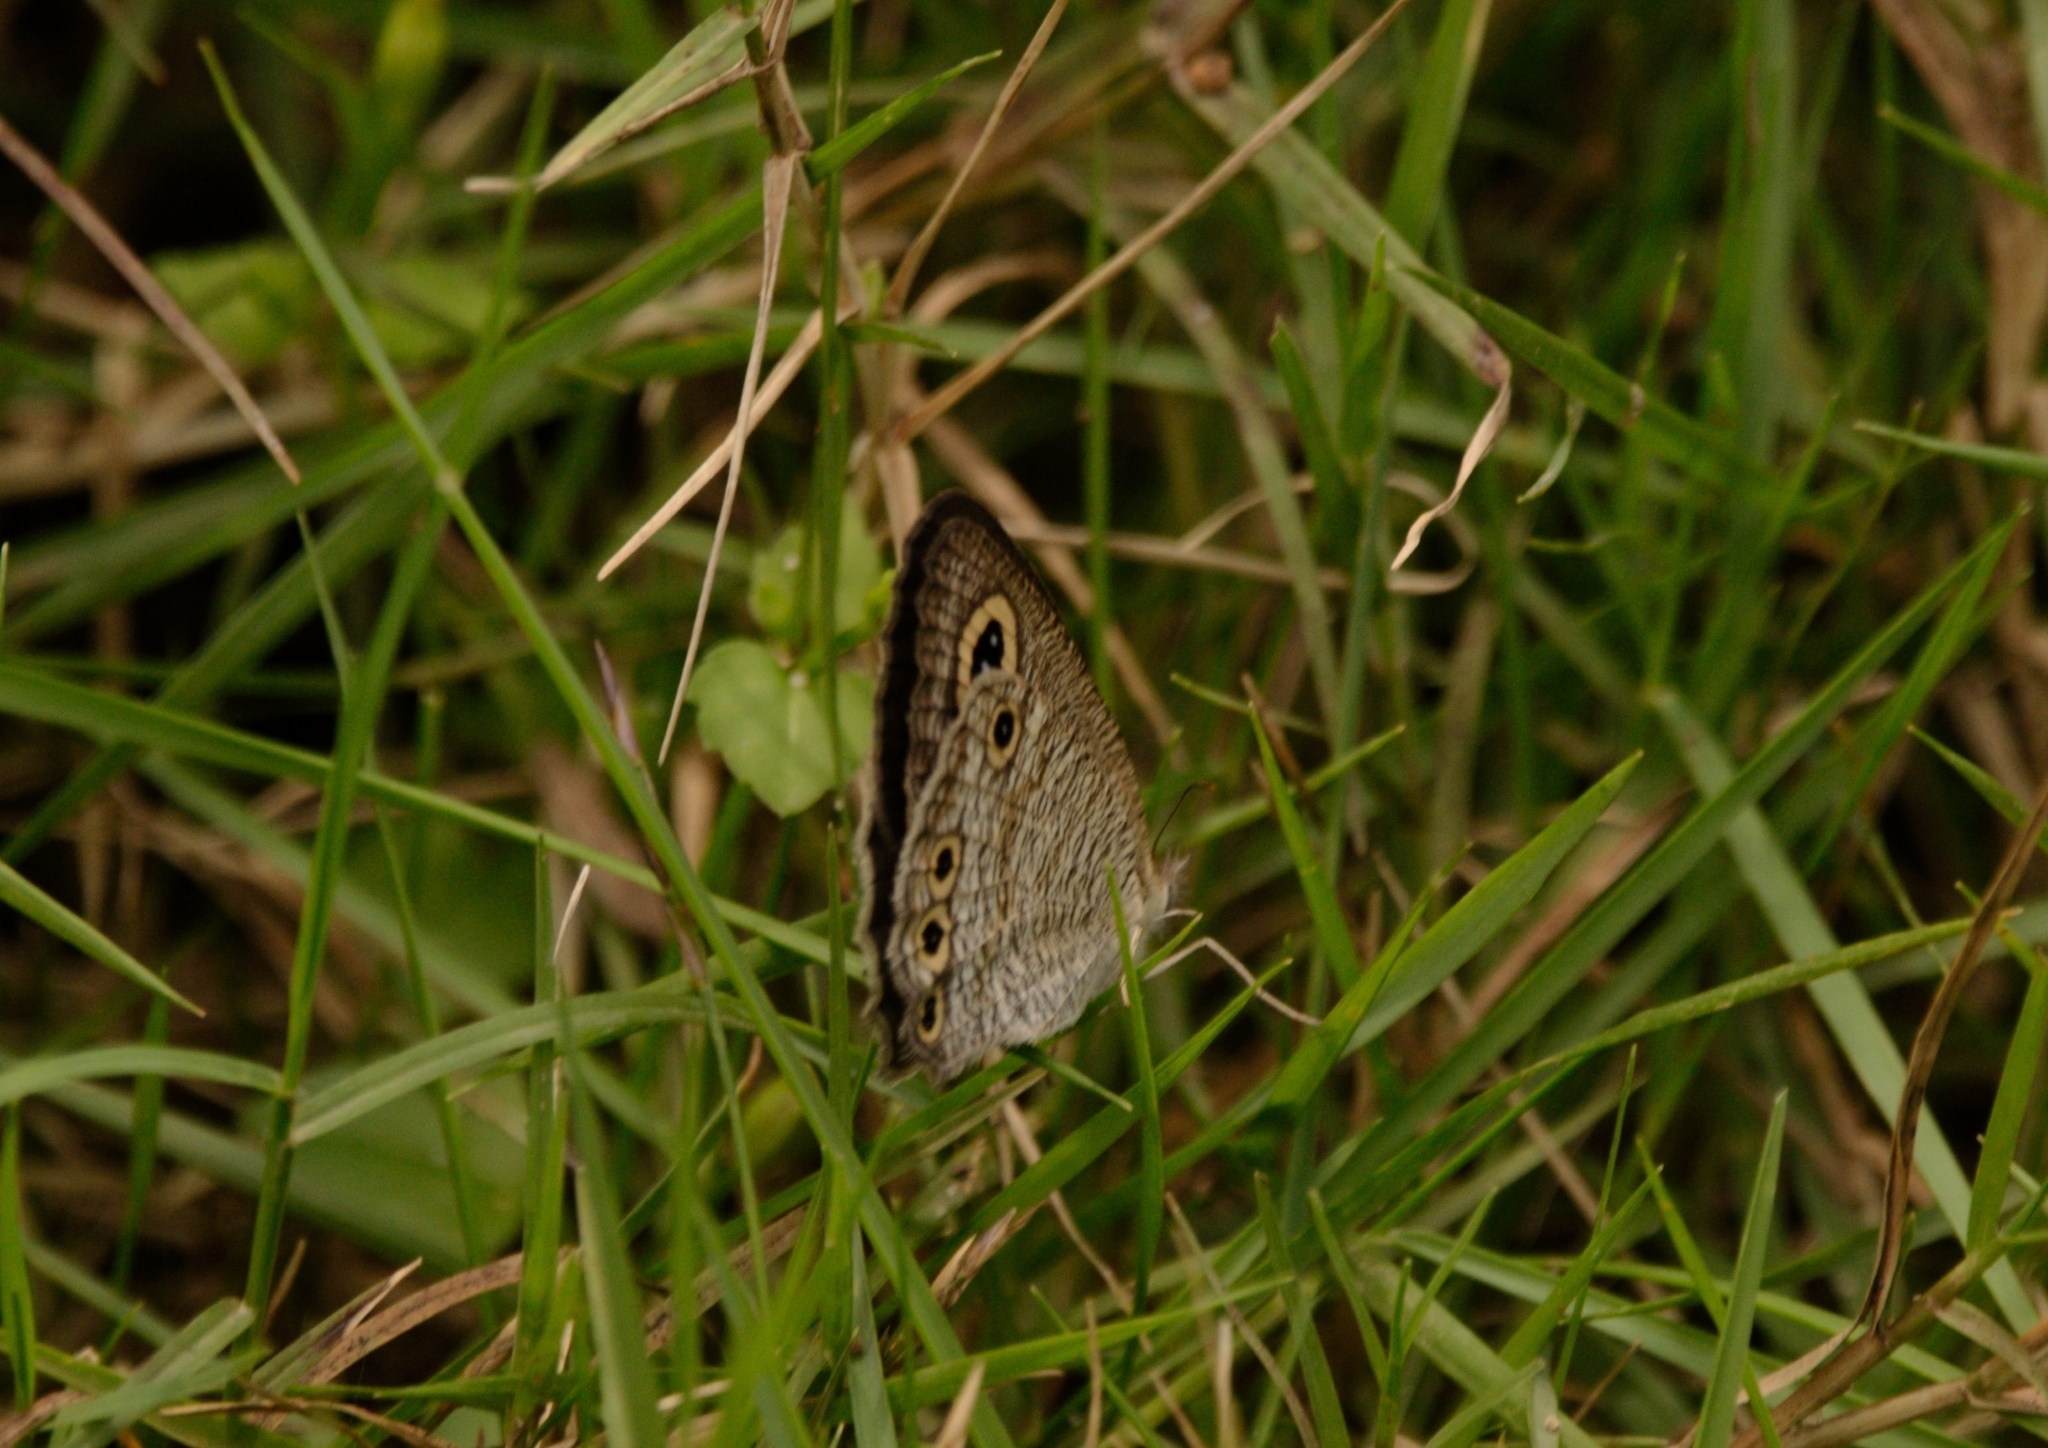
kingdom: Animalia
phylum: Arthropoda
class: Insecta
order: Lepidoptera
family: Nymphalidae
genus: Ypthima
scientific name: Ypthima huebneri
